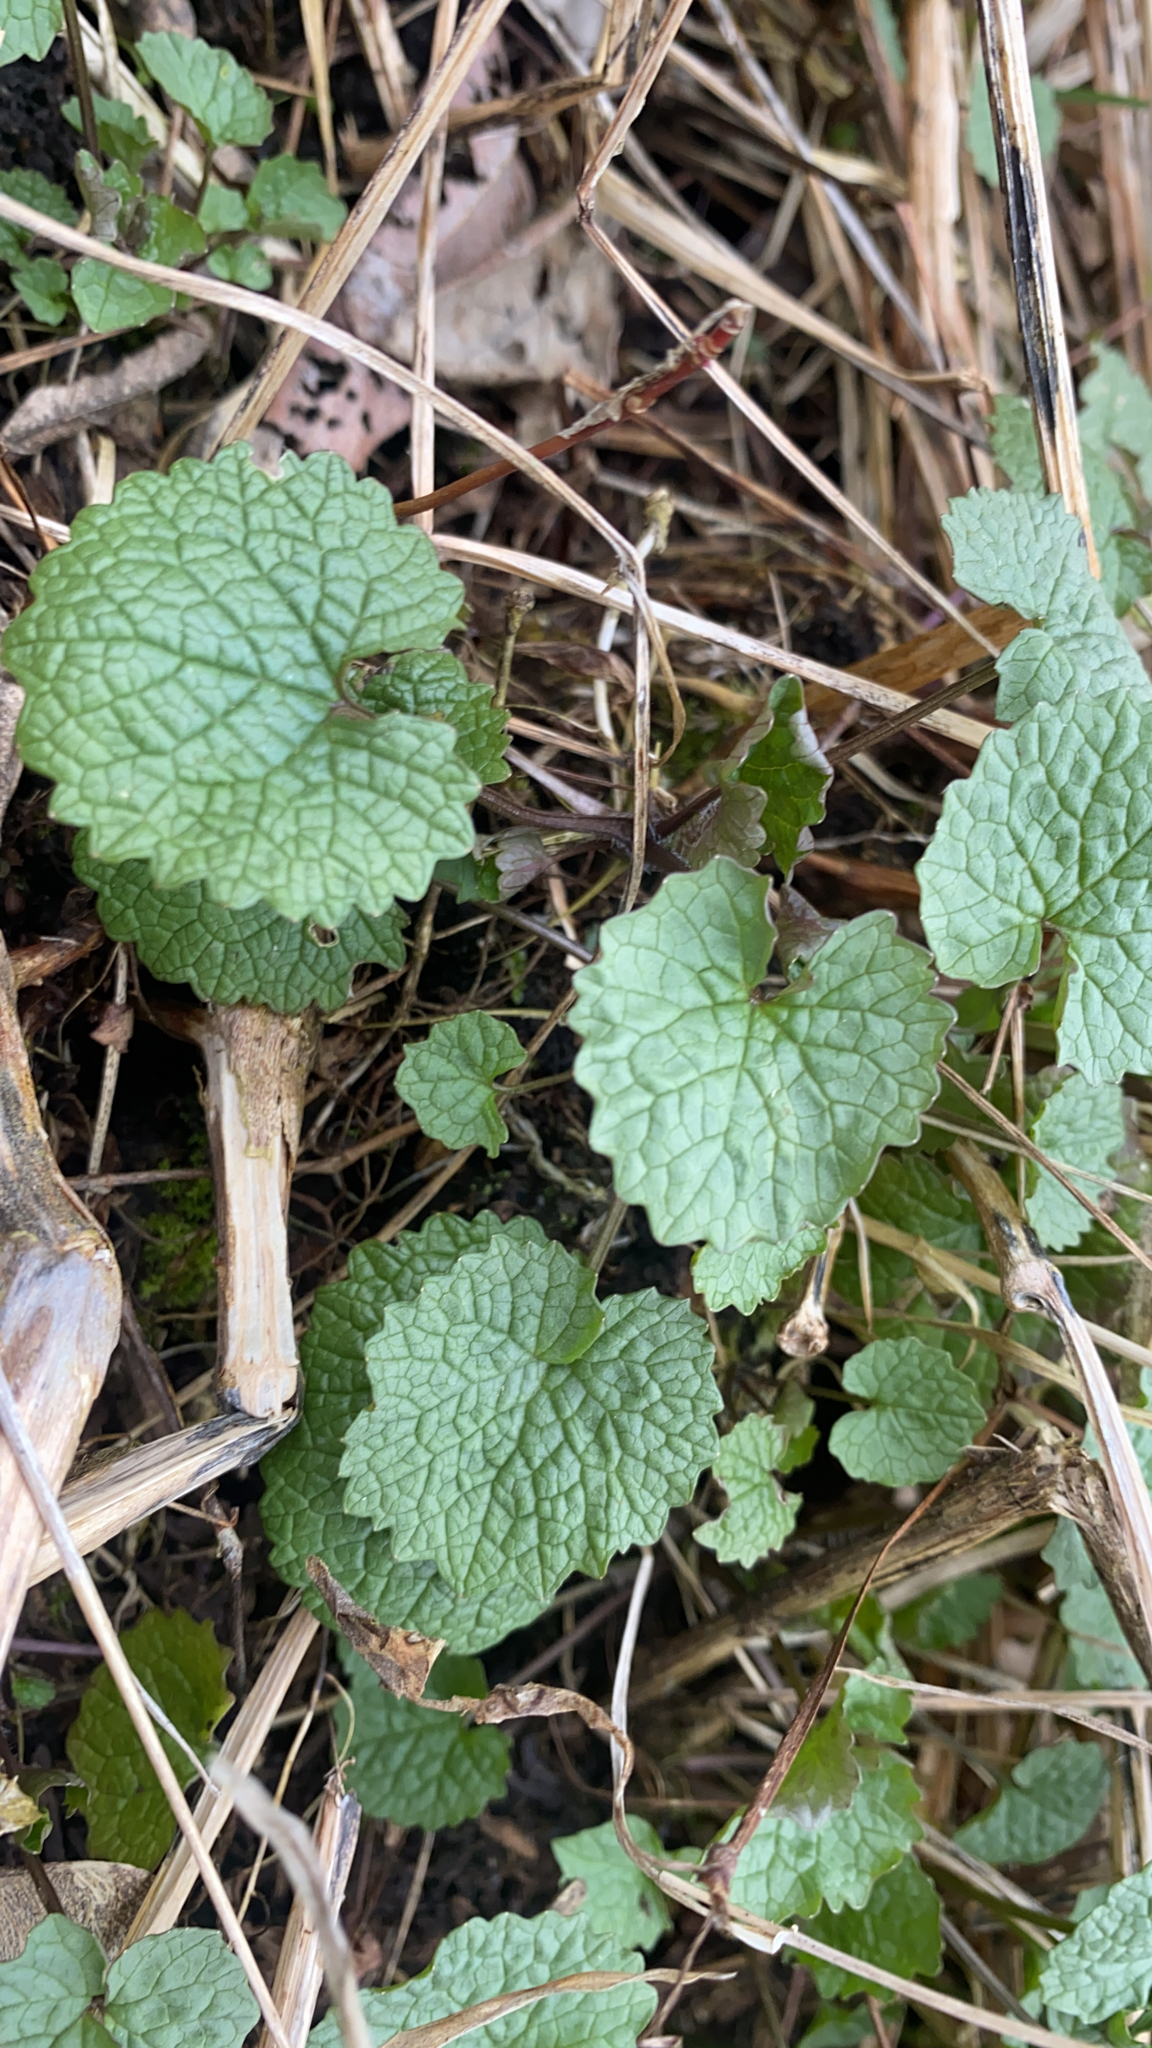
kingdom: Plantae
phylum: Tracheophyta
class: Magnoliopsida
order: Brassicales
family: Brassicaceae
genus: Alliaria
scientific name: Alliaria petiolata
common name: Garlic mustard
